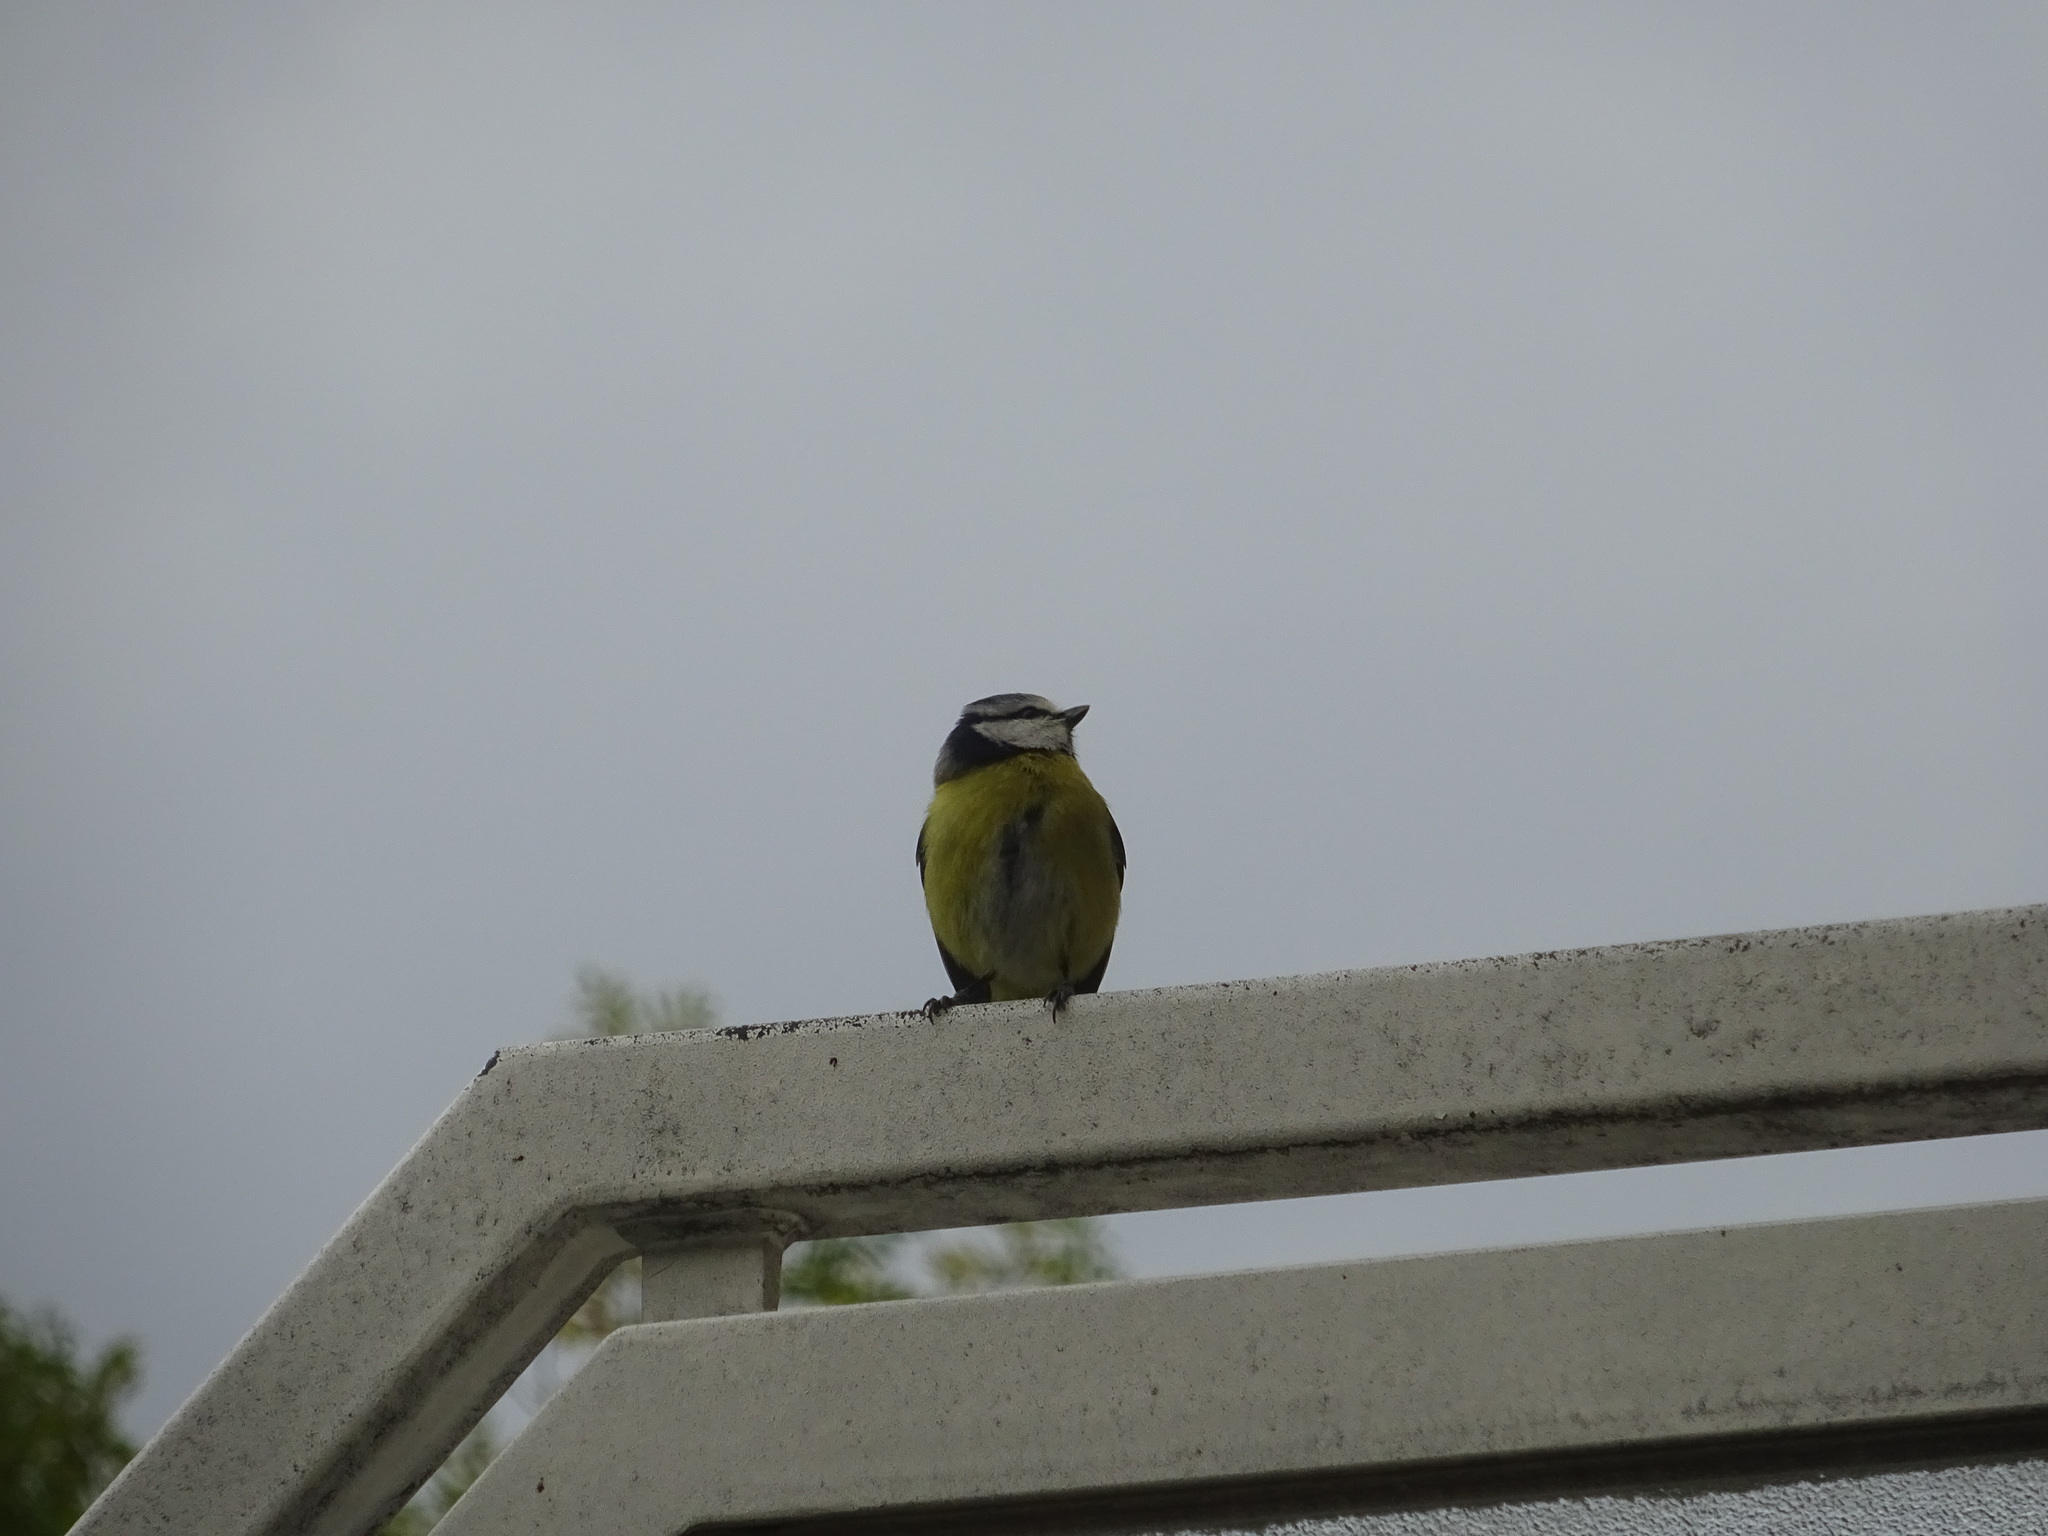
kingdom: Animalia
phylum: Chordata
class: Aves
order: Passeriformes
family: Paridae
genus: Cyanistes
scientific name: Cyanistes caeruleus
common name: Eurasian blue tit
